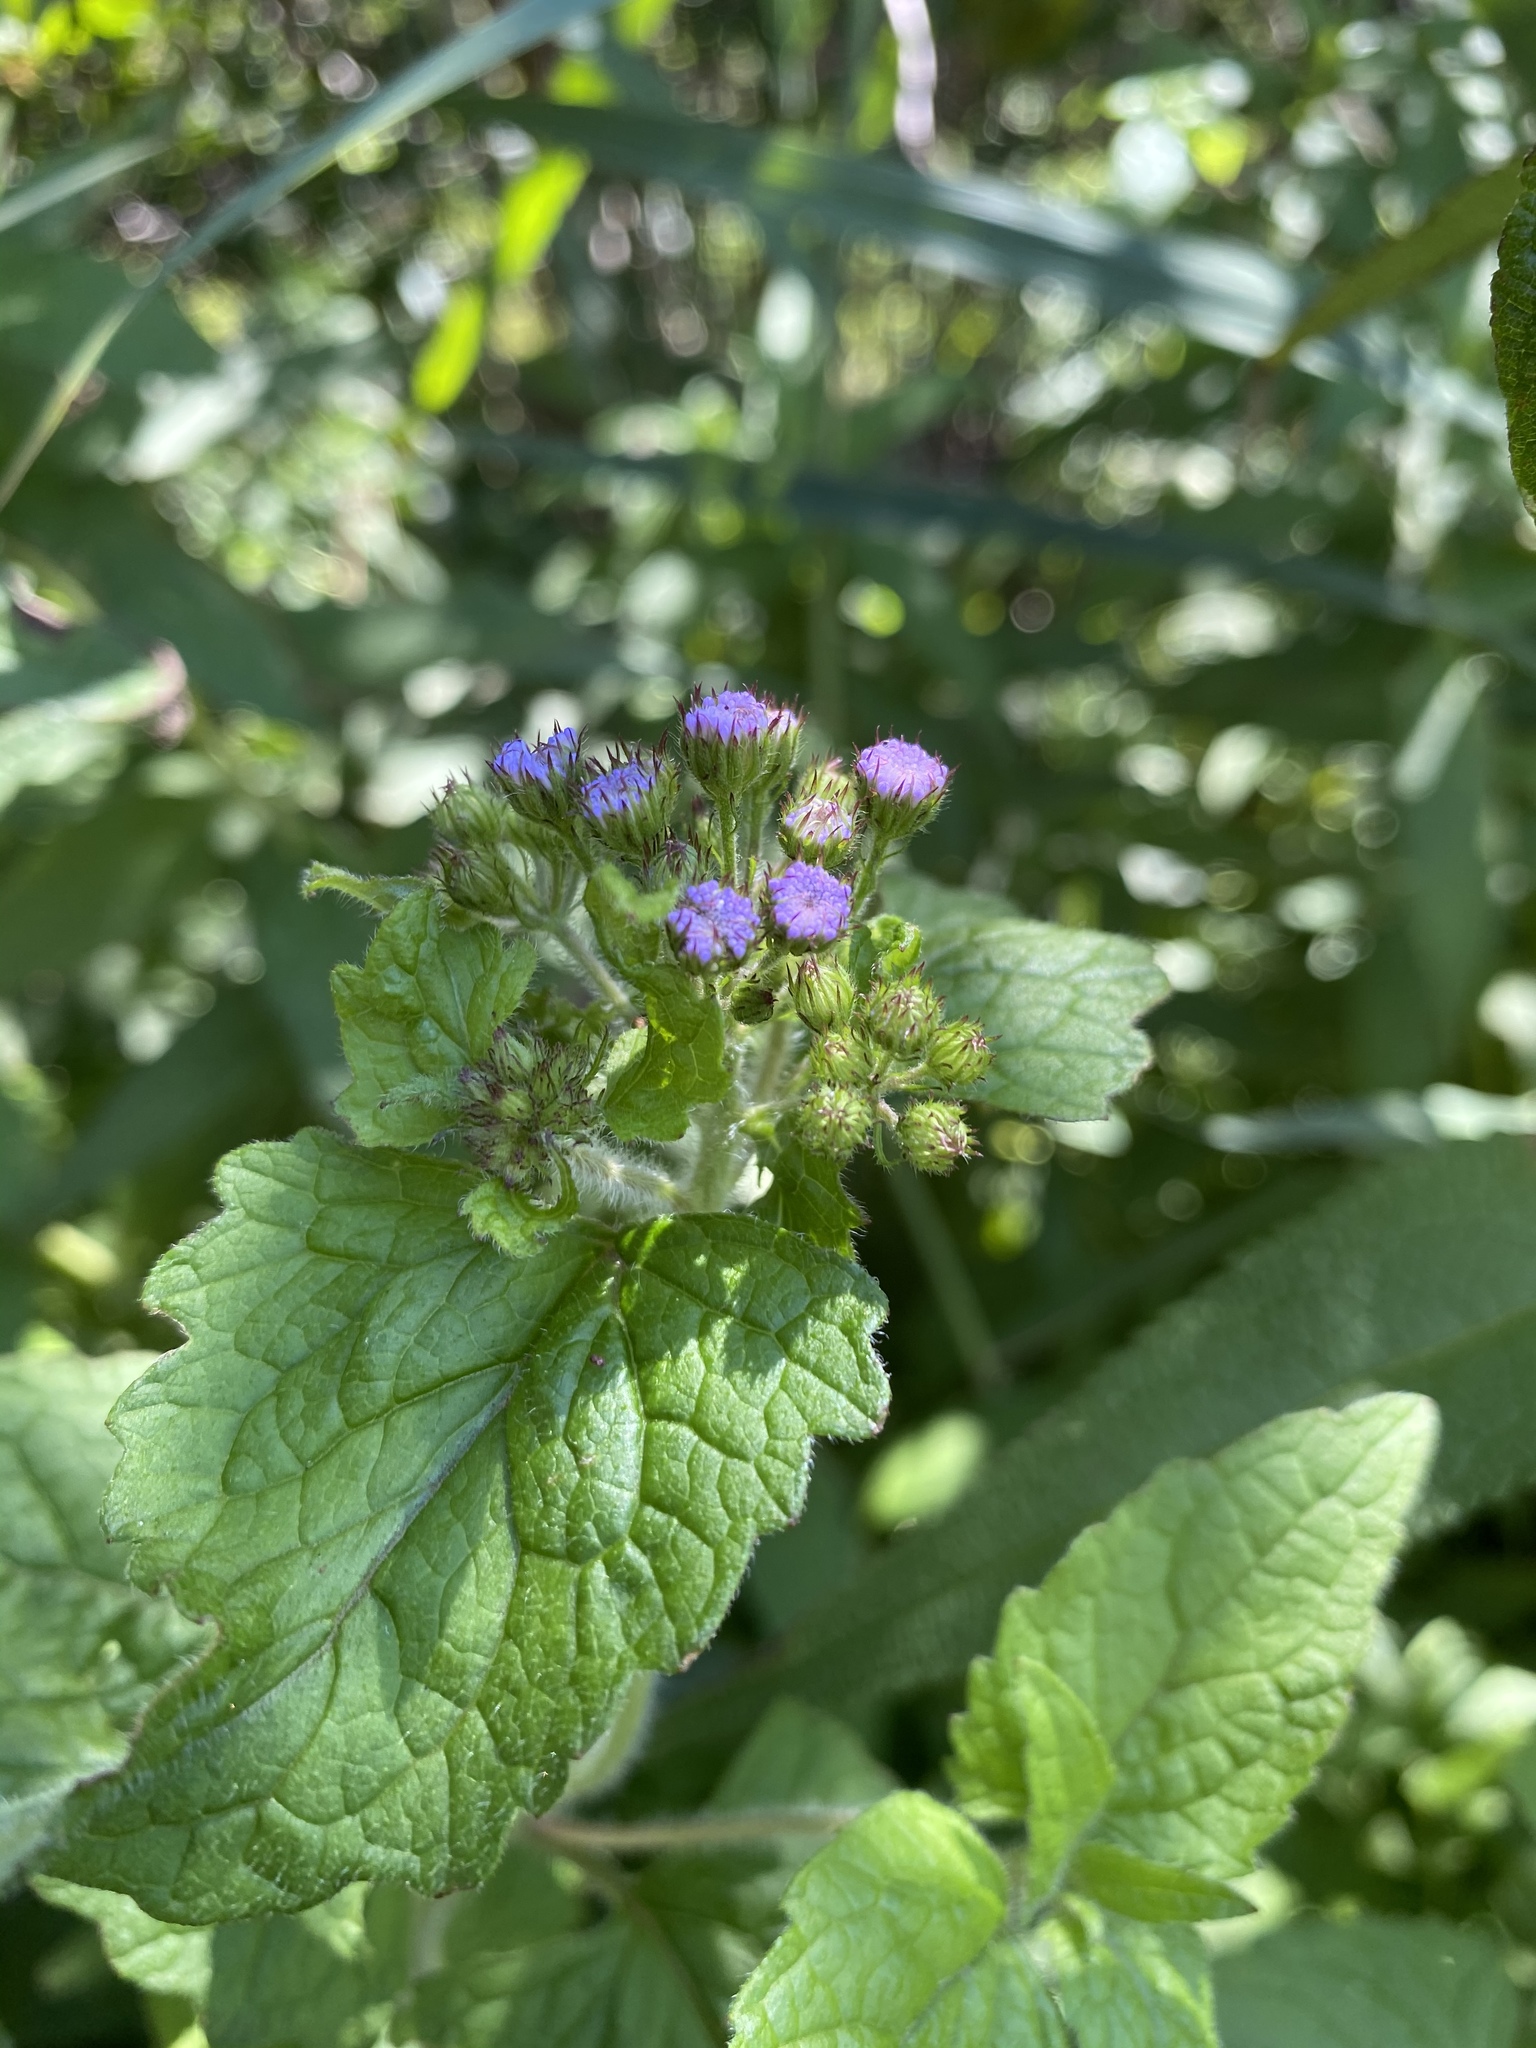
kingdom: Plantae
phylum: Tracheophyta
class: Magnoliopsida
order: Asterales
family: Asteraceae
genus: Conoclinium
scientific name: Conoclinium coelestinum
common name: Blue mistflower
